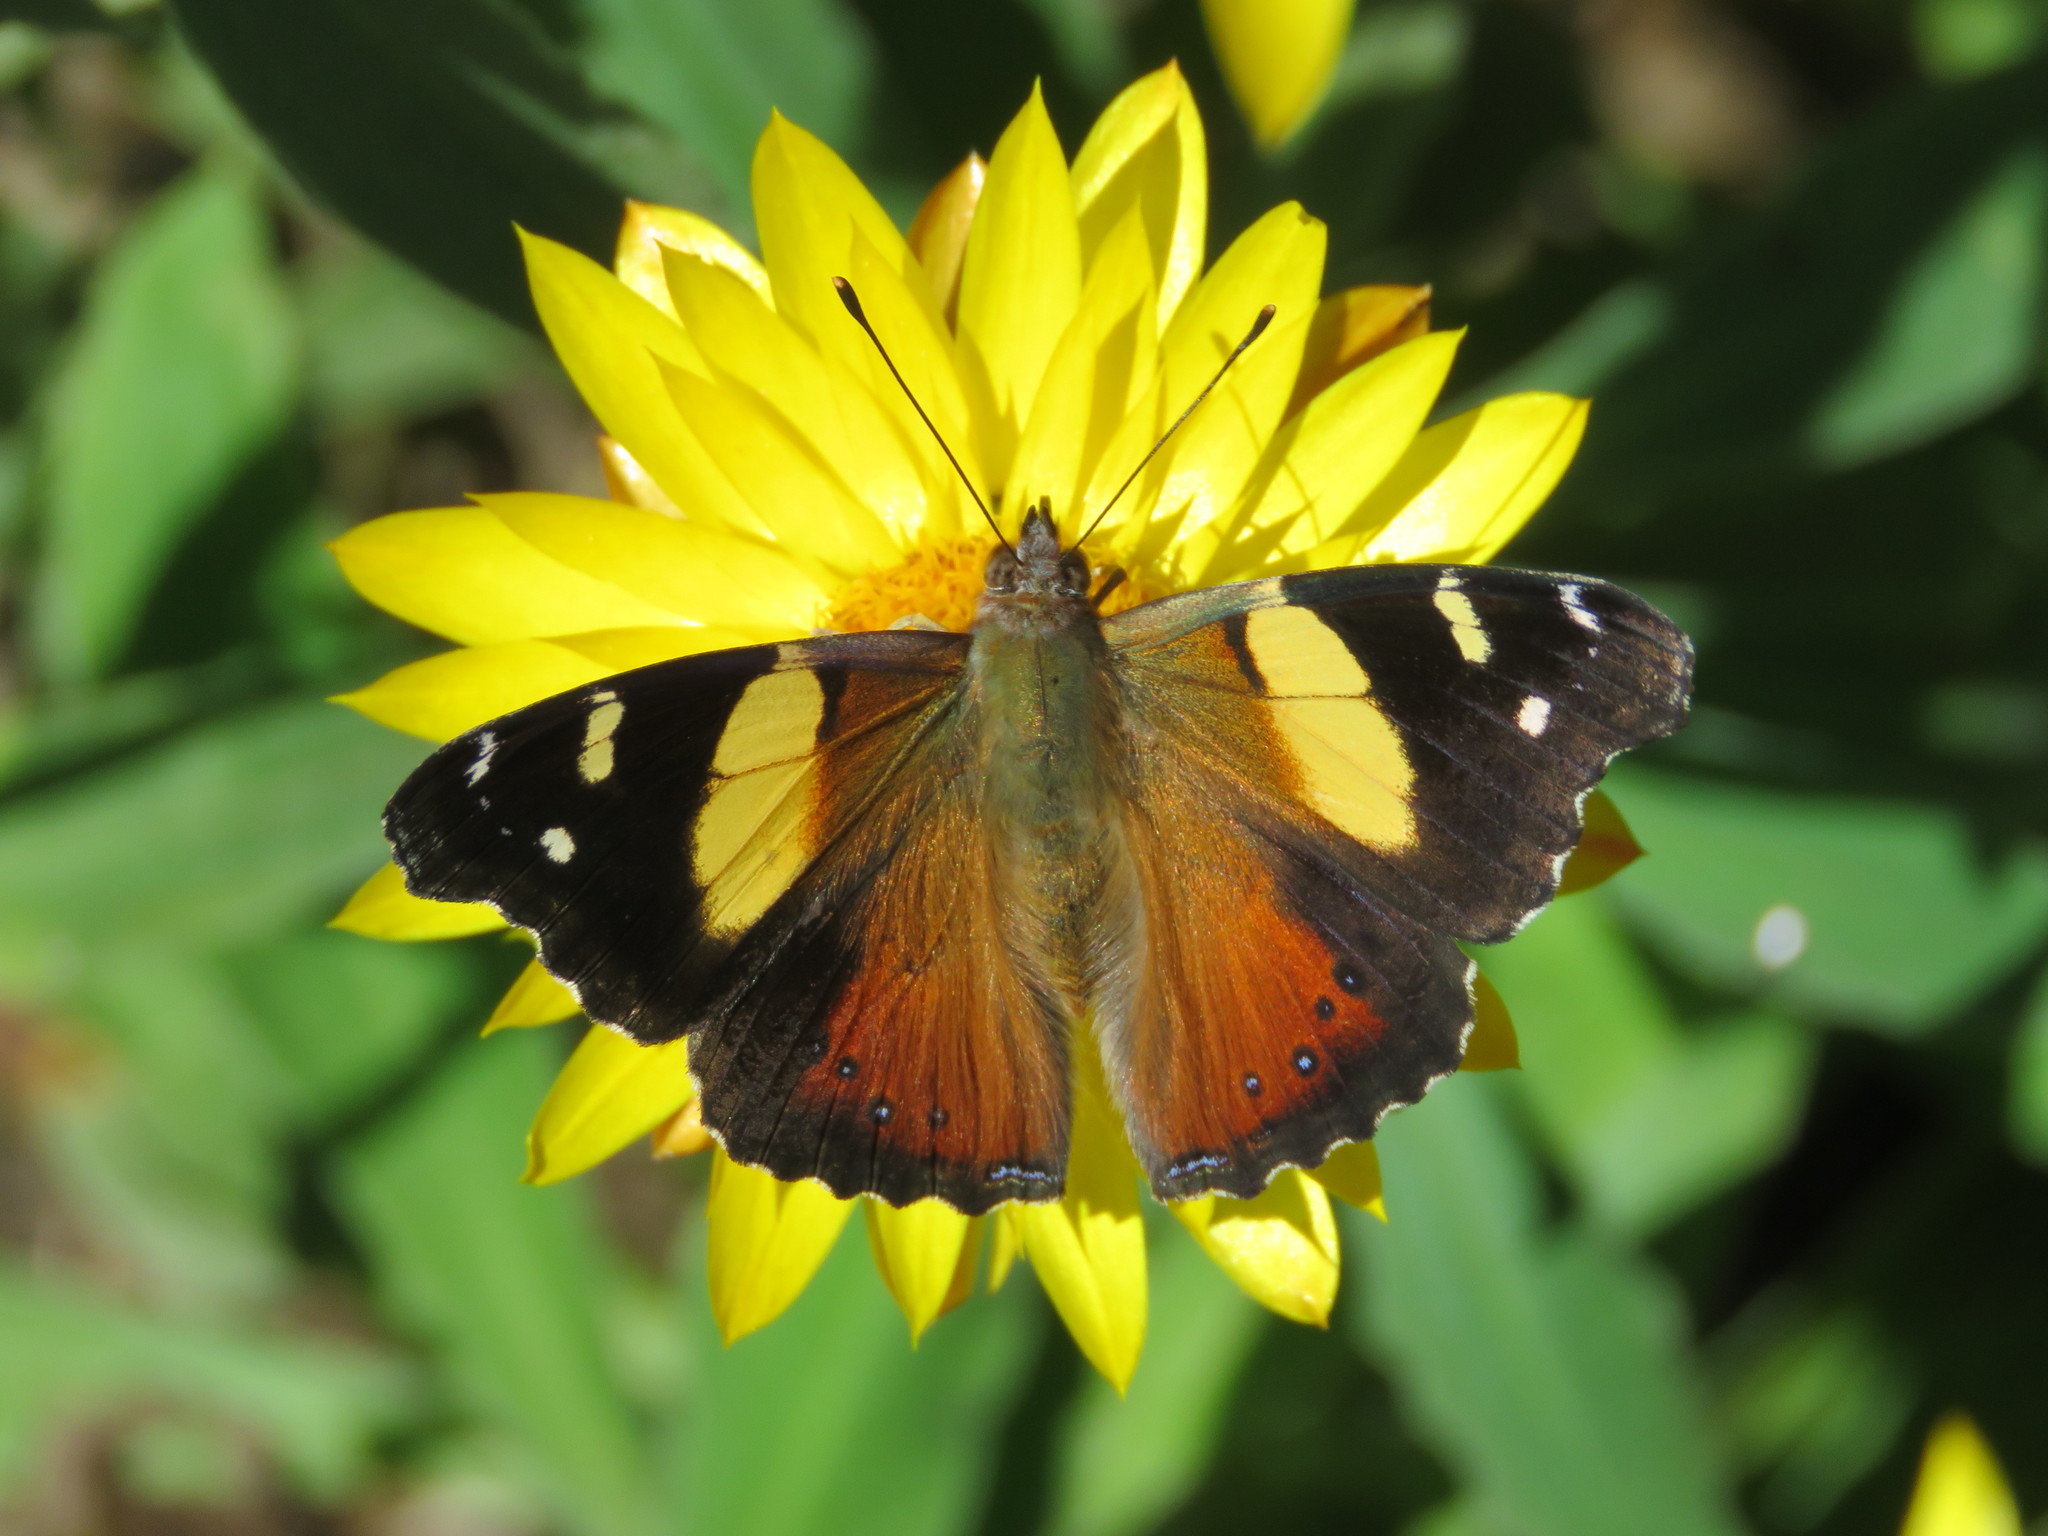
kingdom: Animalia
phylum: Arthropoda
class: Insecta
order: Lepidoptera
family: Nymphalidae
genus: Vanessa
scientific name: Vanessa itea
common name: Yellow admiral
